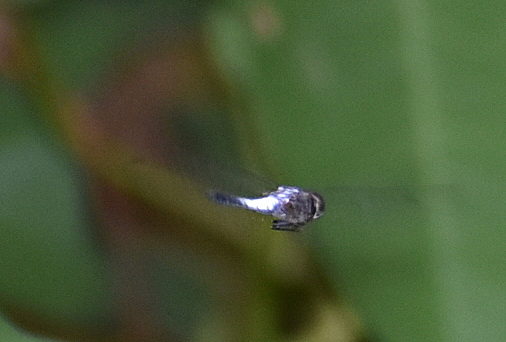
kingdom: Animalia
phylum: Arthropoda
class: Insecta
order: Odonata
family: Libellulidae
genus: Brachydiplax
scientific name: Brachydiplax farinosa
